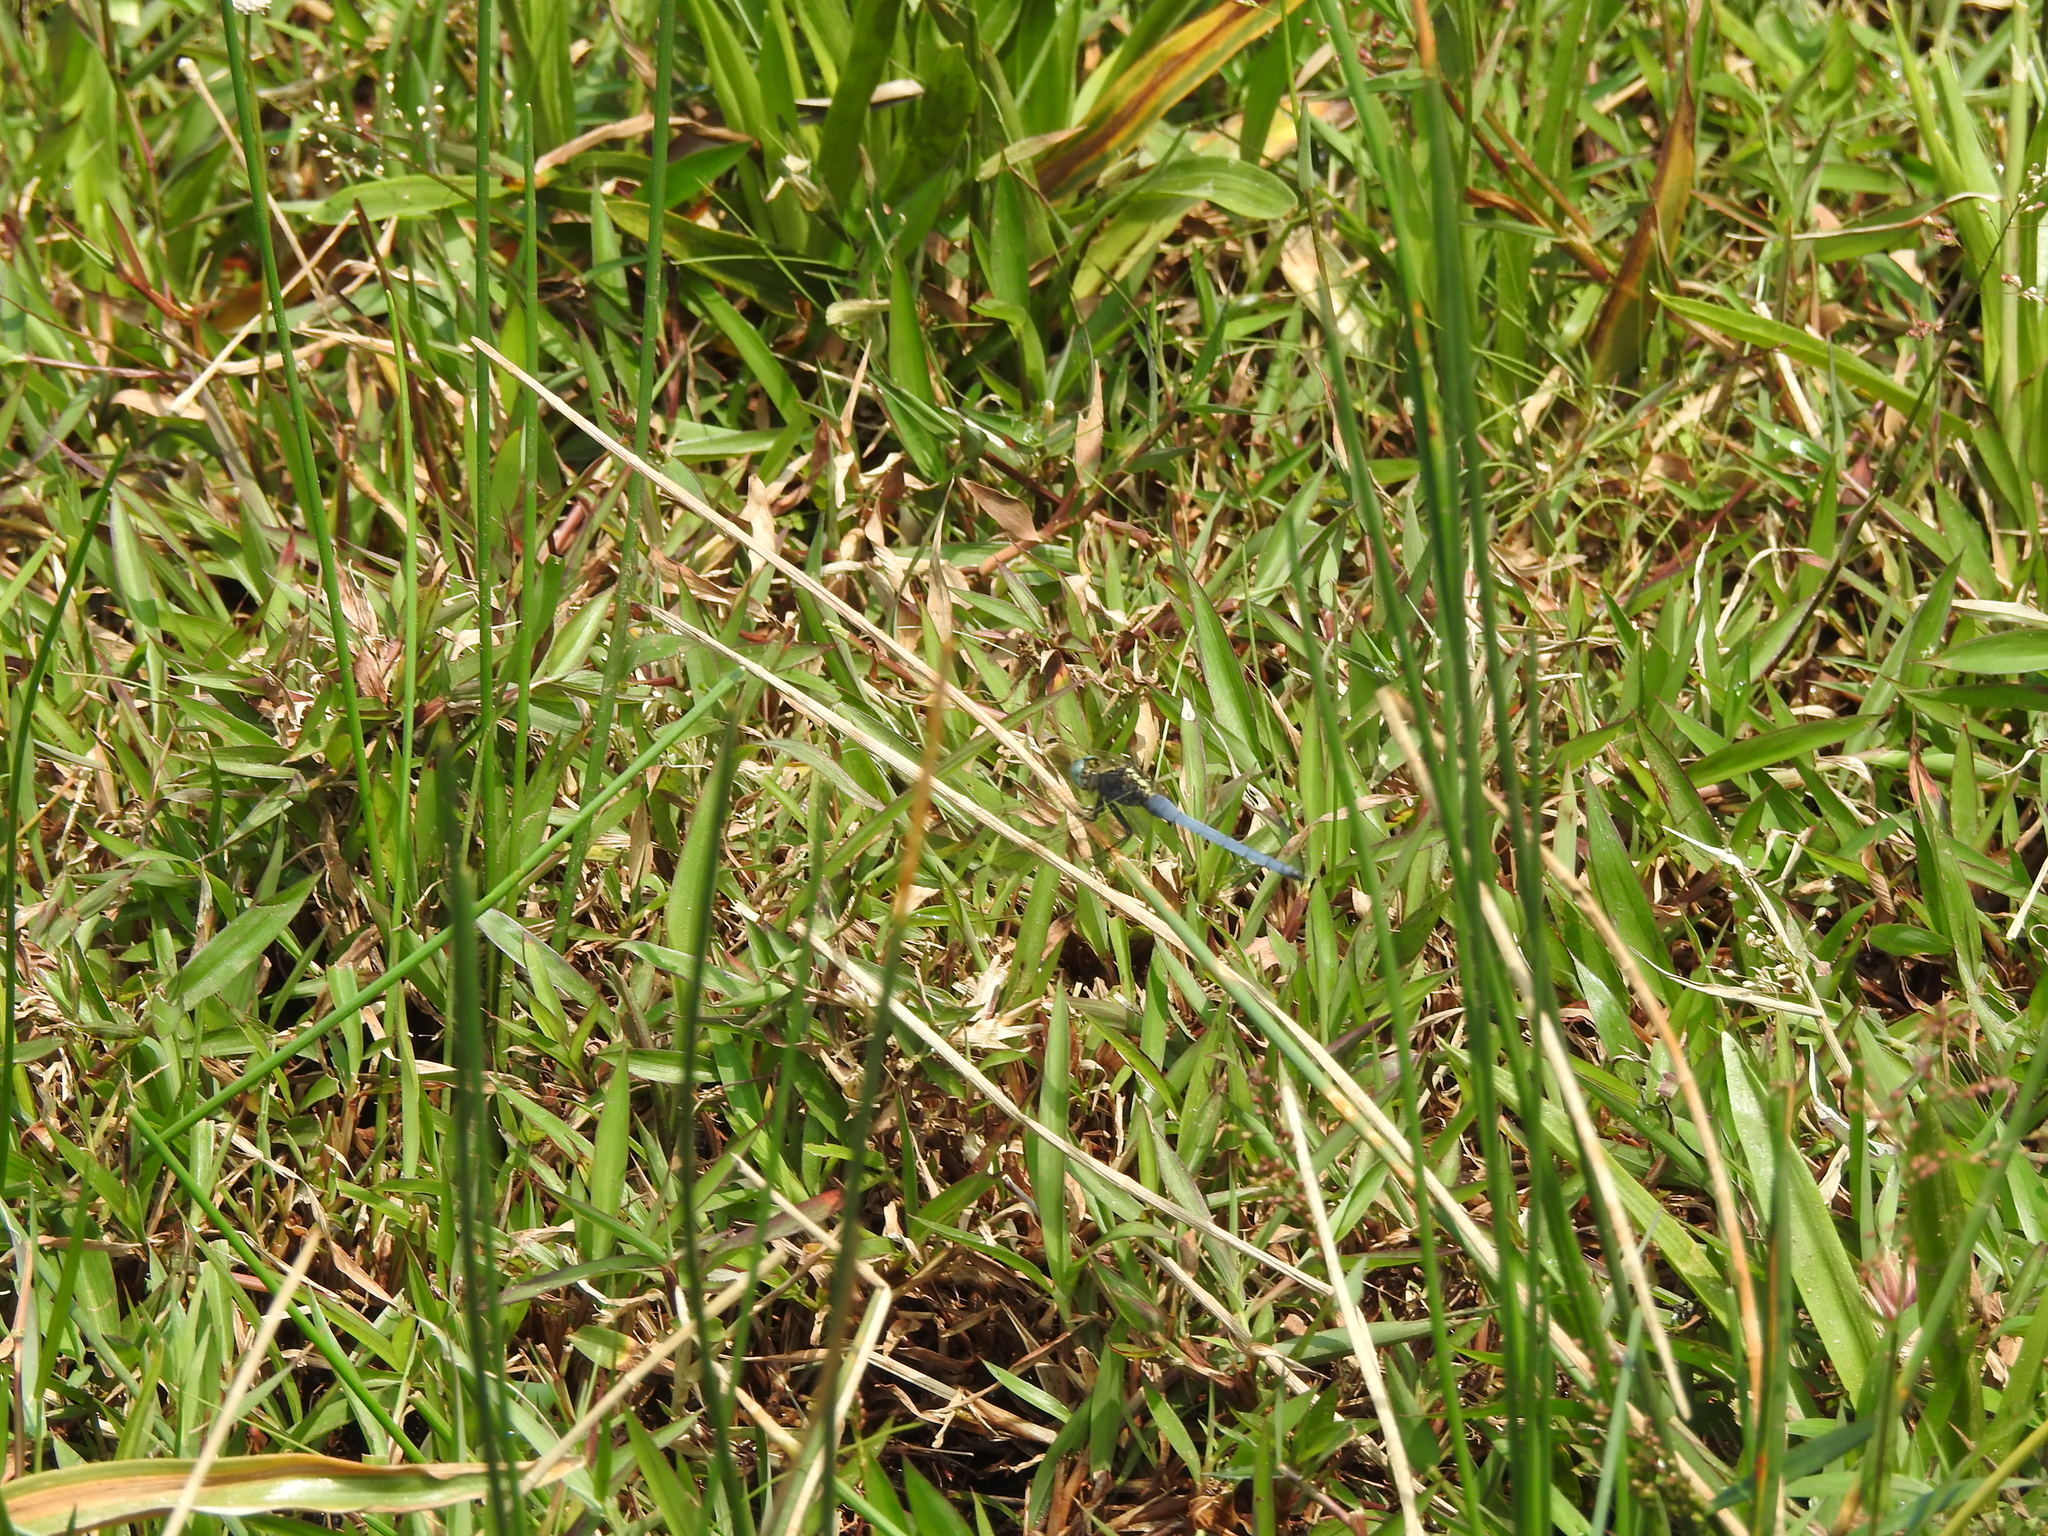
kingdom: Animalia
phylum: Arthropoda
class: Insecta
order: Odonata
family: Libellulidae
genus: Orthetrum
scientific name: Orthetrum luzonicum
